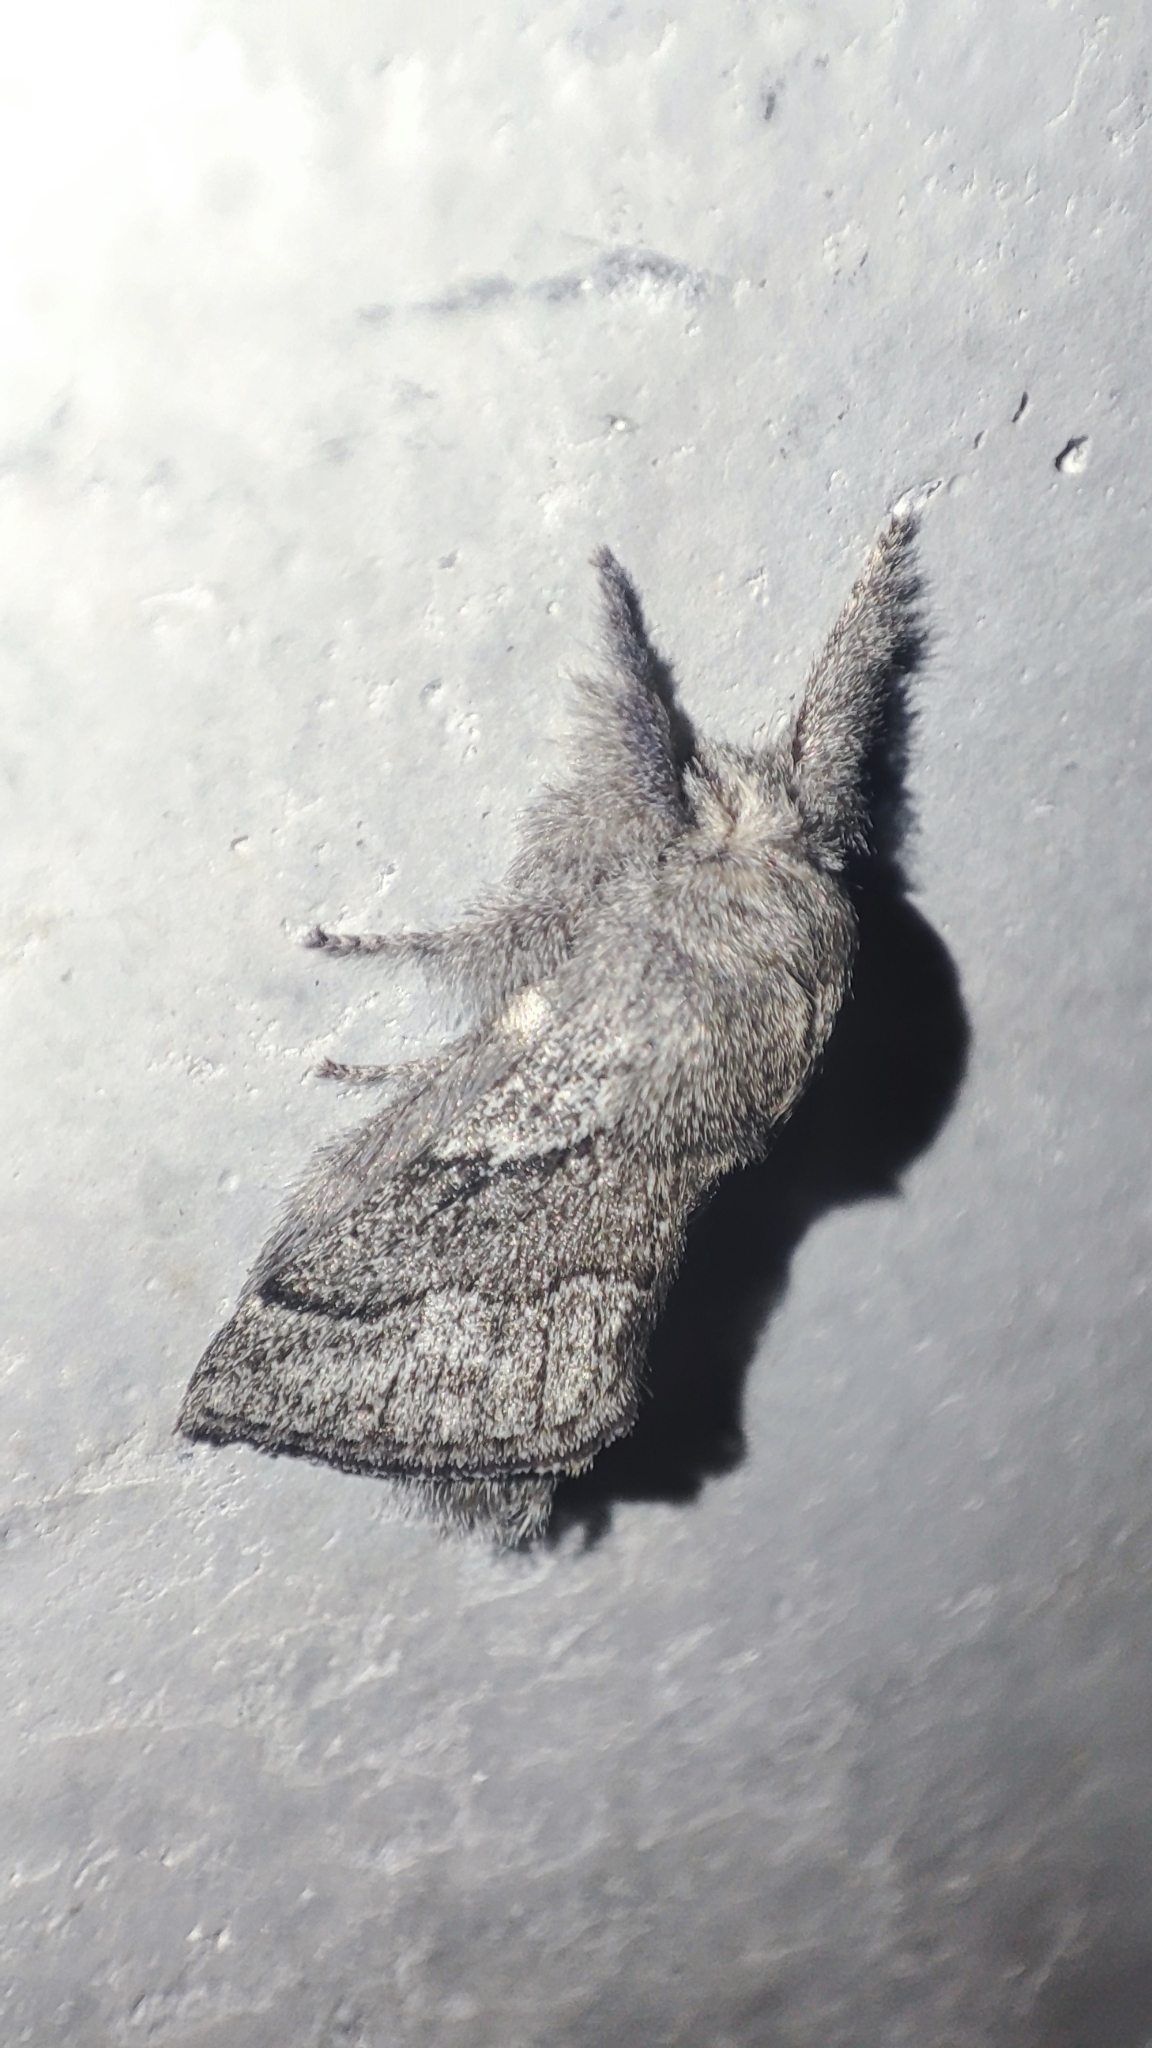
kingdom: Animalia
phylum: Arthropoda
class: Insecta
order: Lepidoptera
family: Lasiocampidae
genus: Trichiura
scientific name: Trichiura crataegi
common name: Pale eggar
